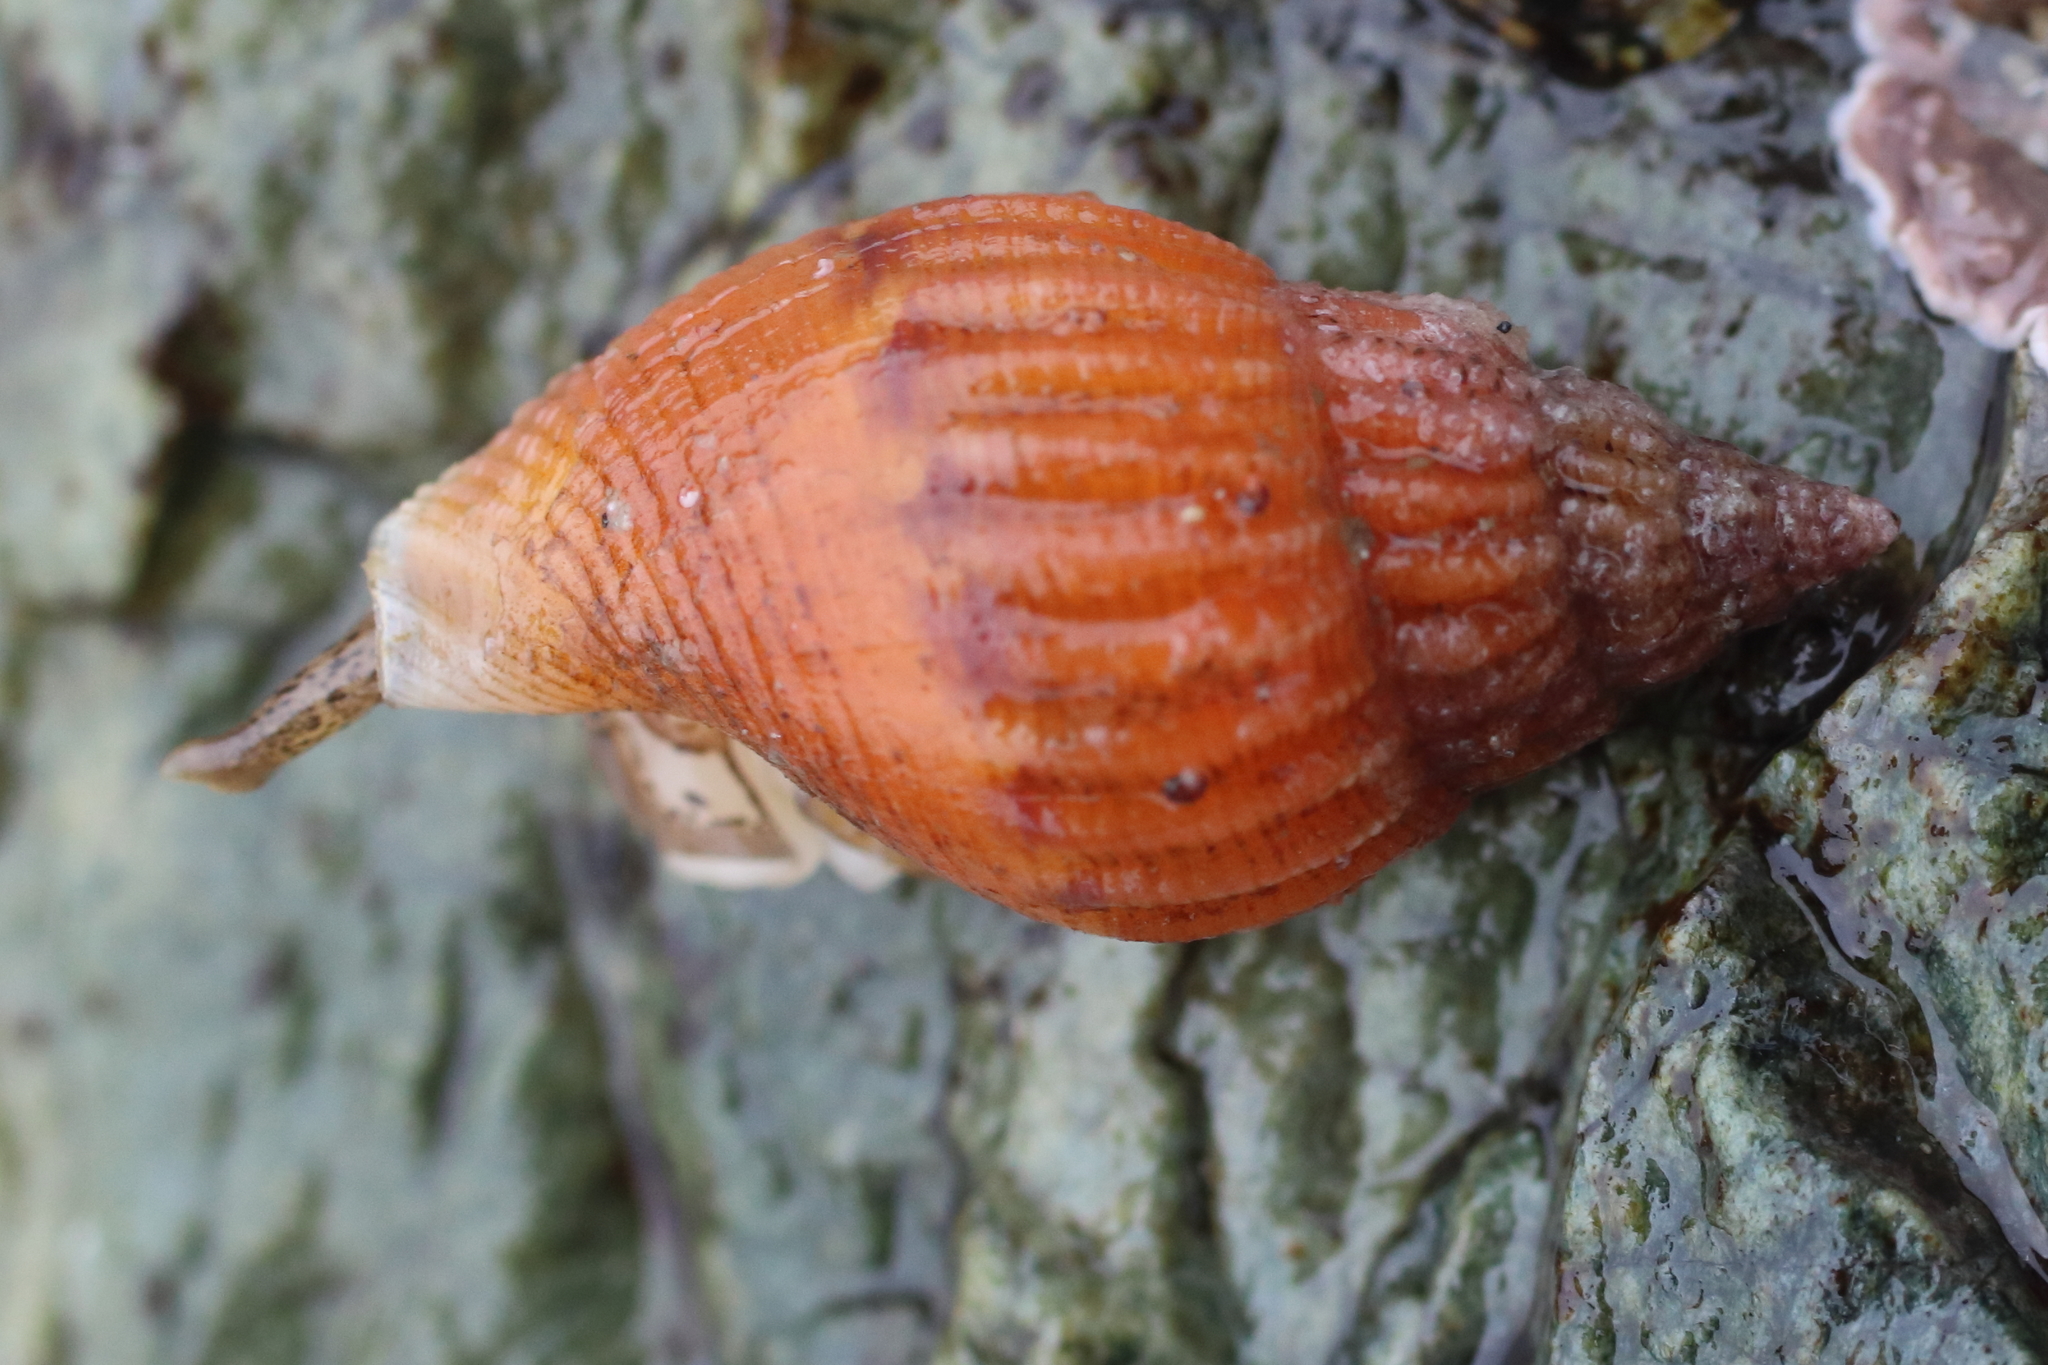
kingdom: Animalia
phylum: Mollusca
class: Gastropoda
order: Neogastropoda
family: Columbellidae
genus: Amphissa
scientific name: Amphissa columbiana
